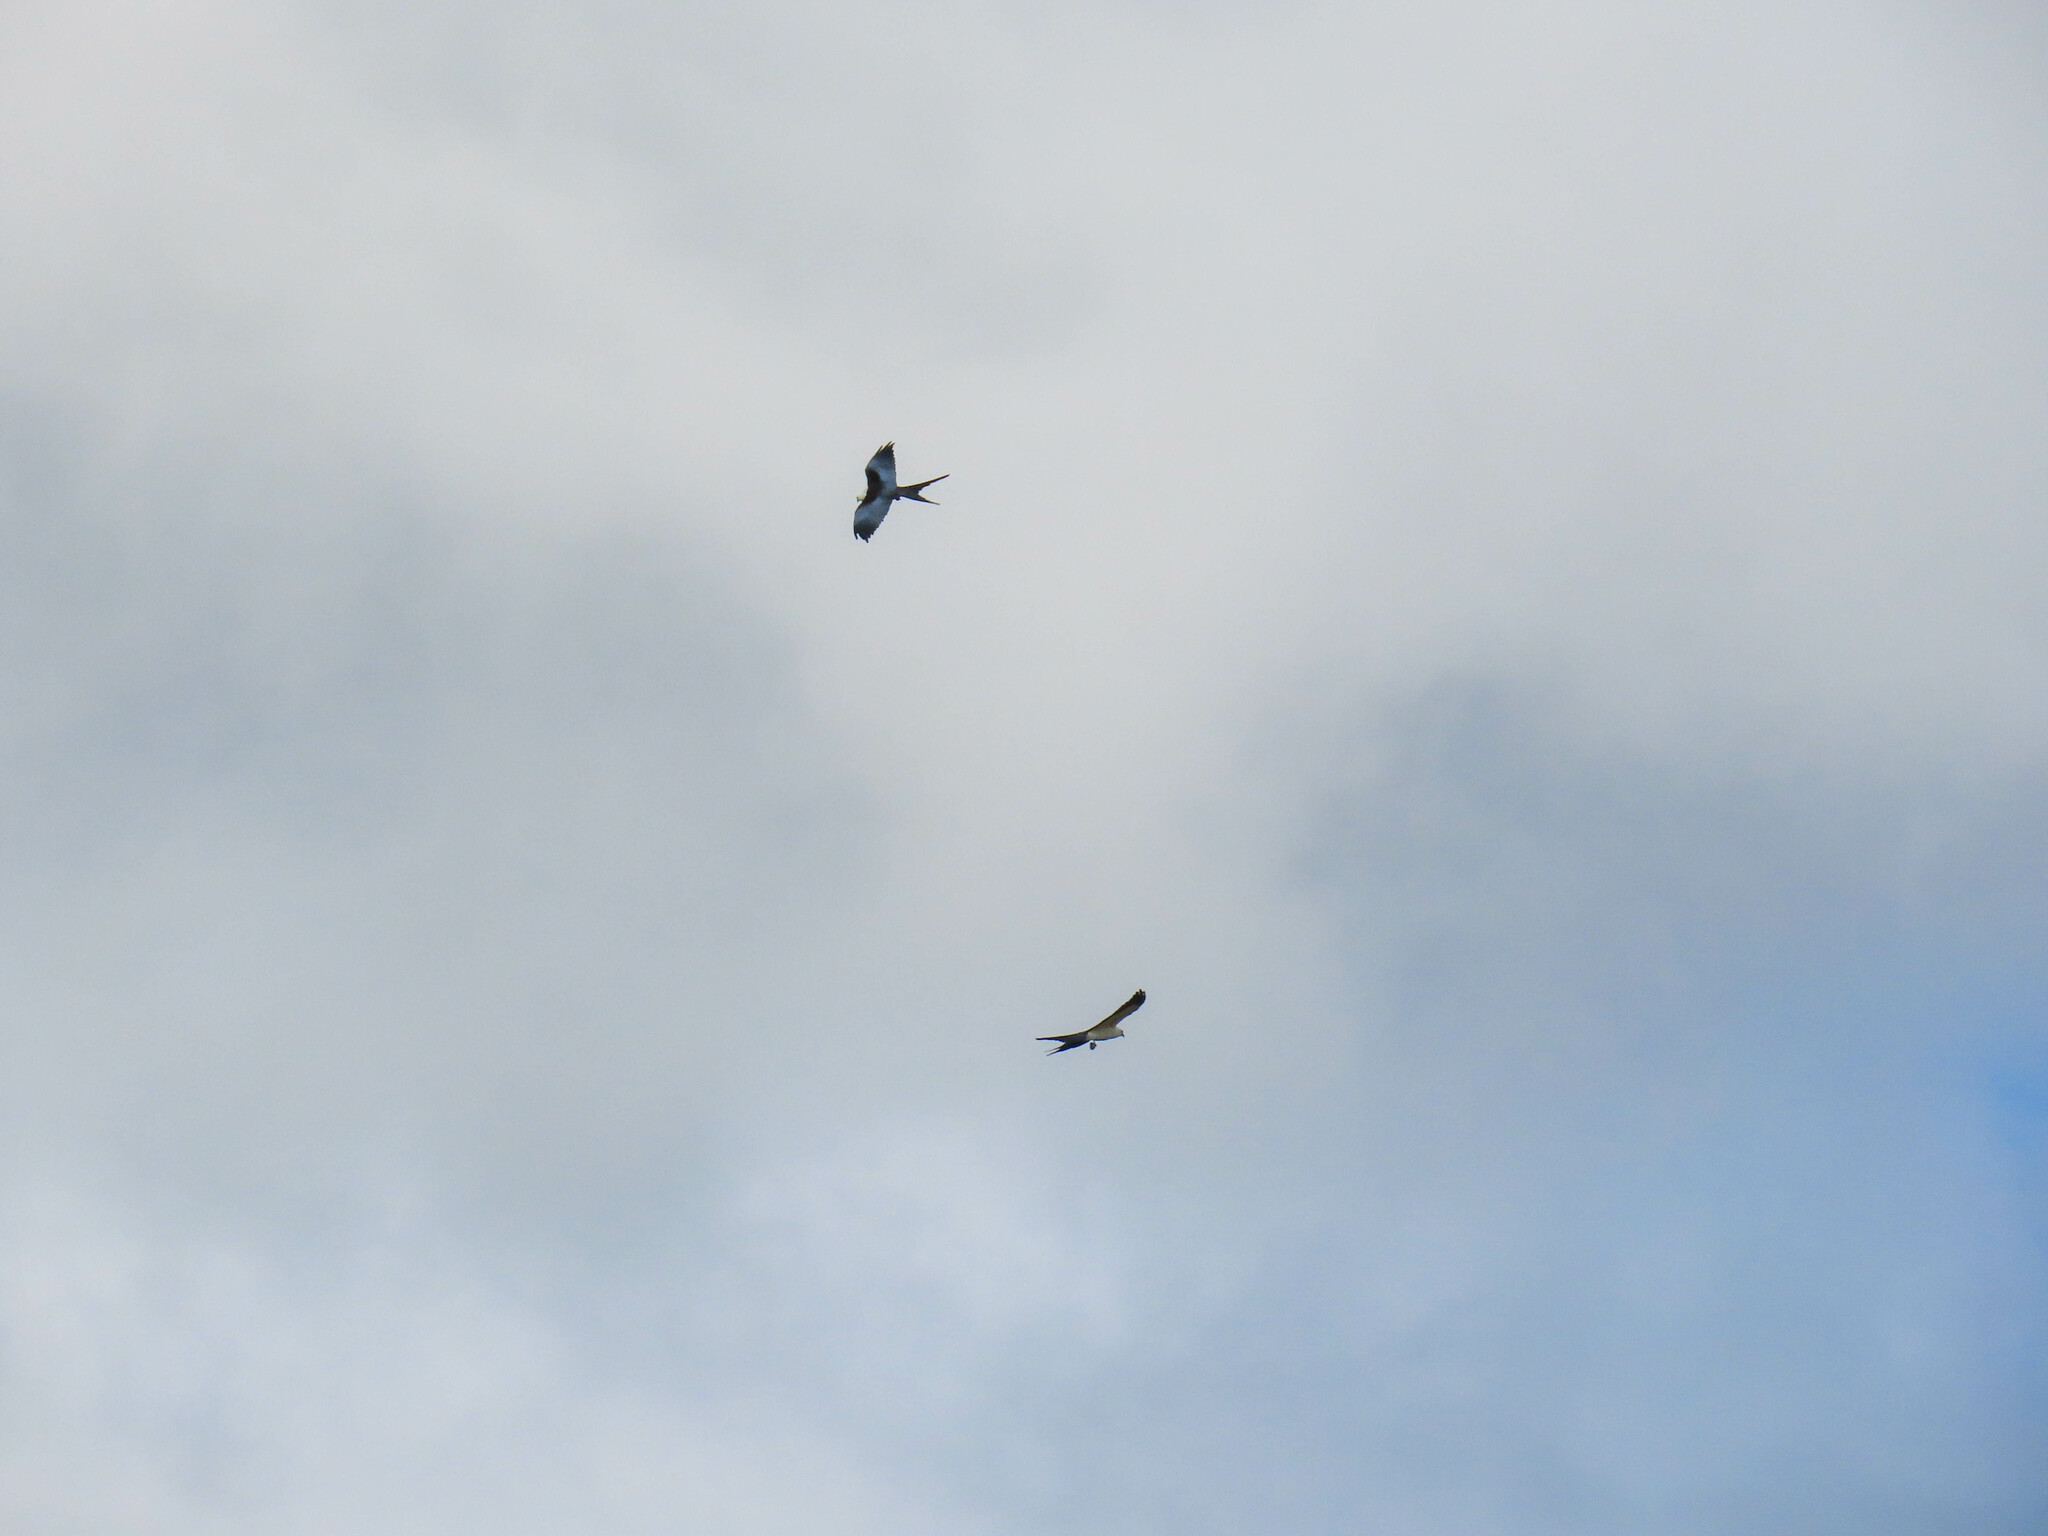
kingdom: Animalia
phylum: Chordata
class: Aves
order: Accipitriformes
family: Accipitridae
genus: Elanoides
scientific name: Elanoides forficatus
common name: Swallow-tailed kite
